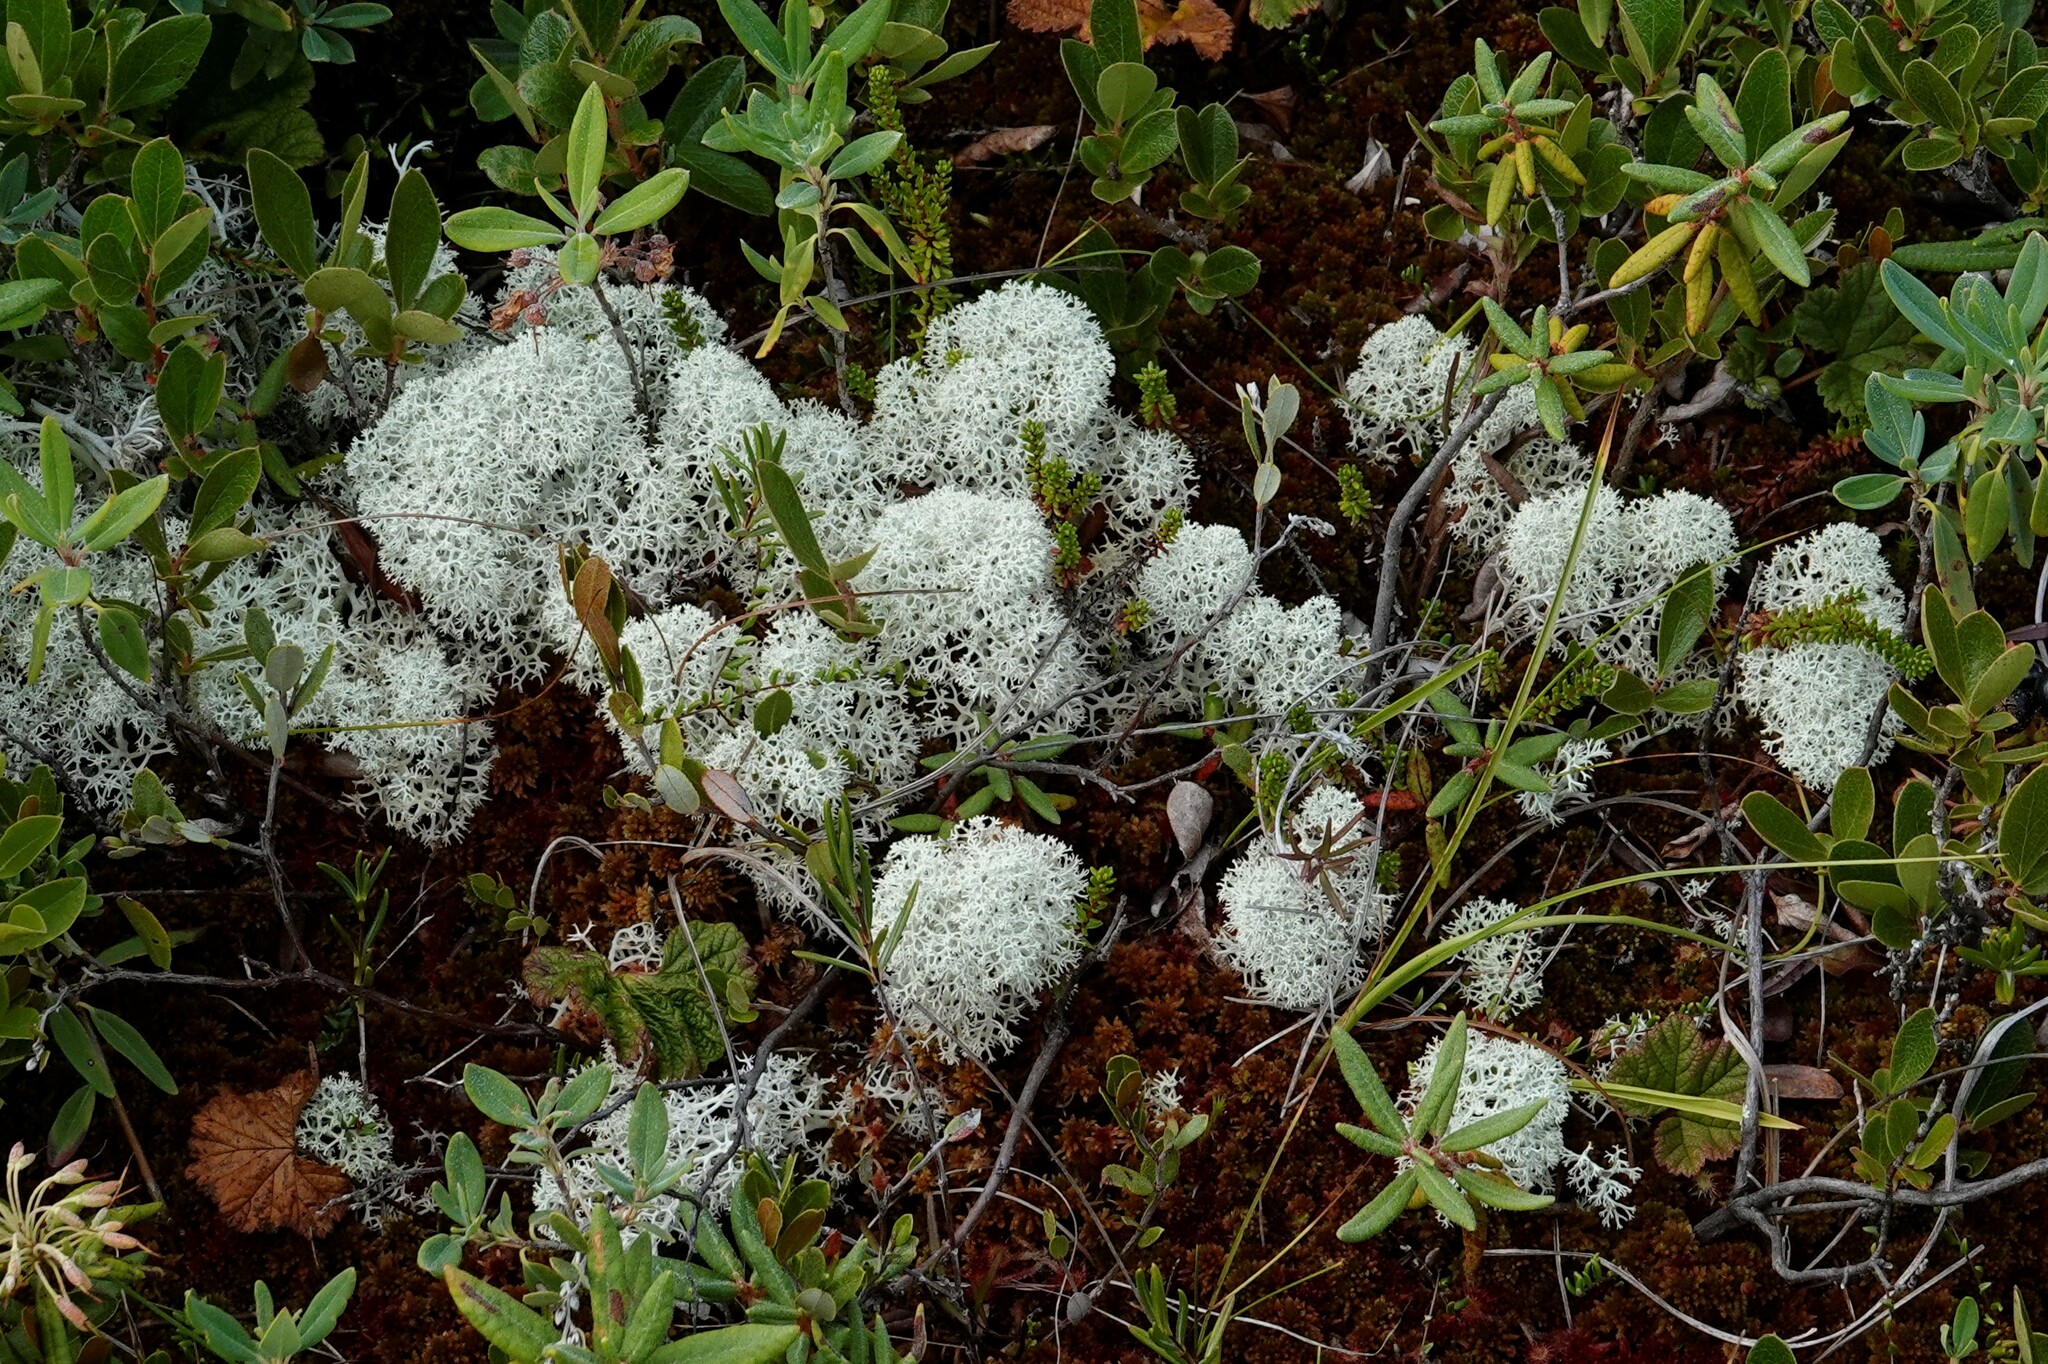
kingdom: Fungi
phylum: Ascomycota
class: Lecanoromycetes
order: Lecanorales
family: Cladoniaceae
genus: Cladonia
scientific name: Cladonia stellaris
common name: Star-tipped reindeer lichen
